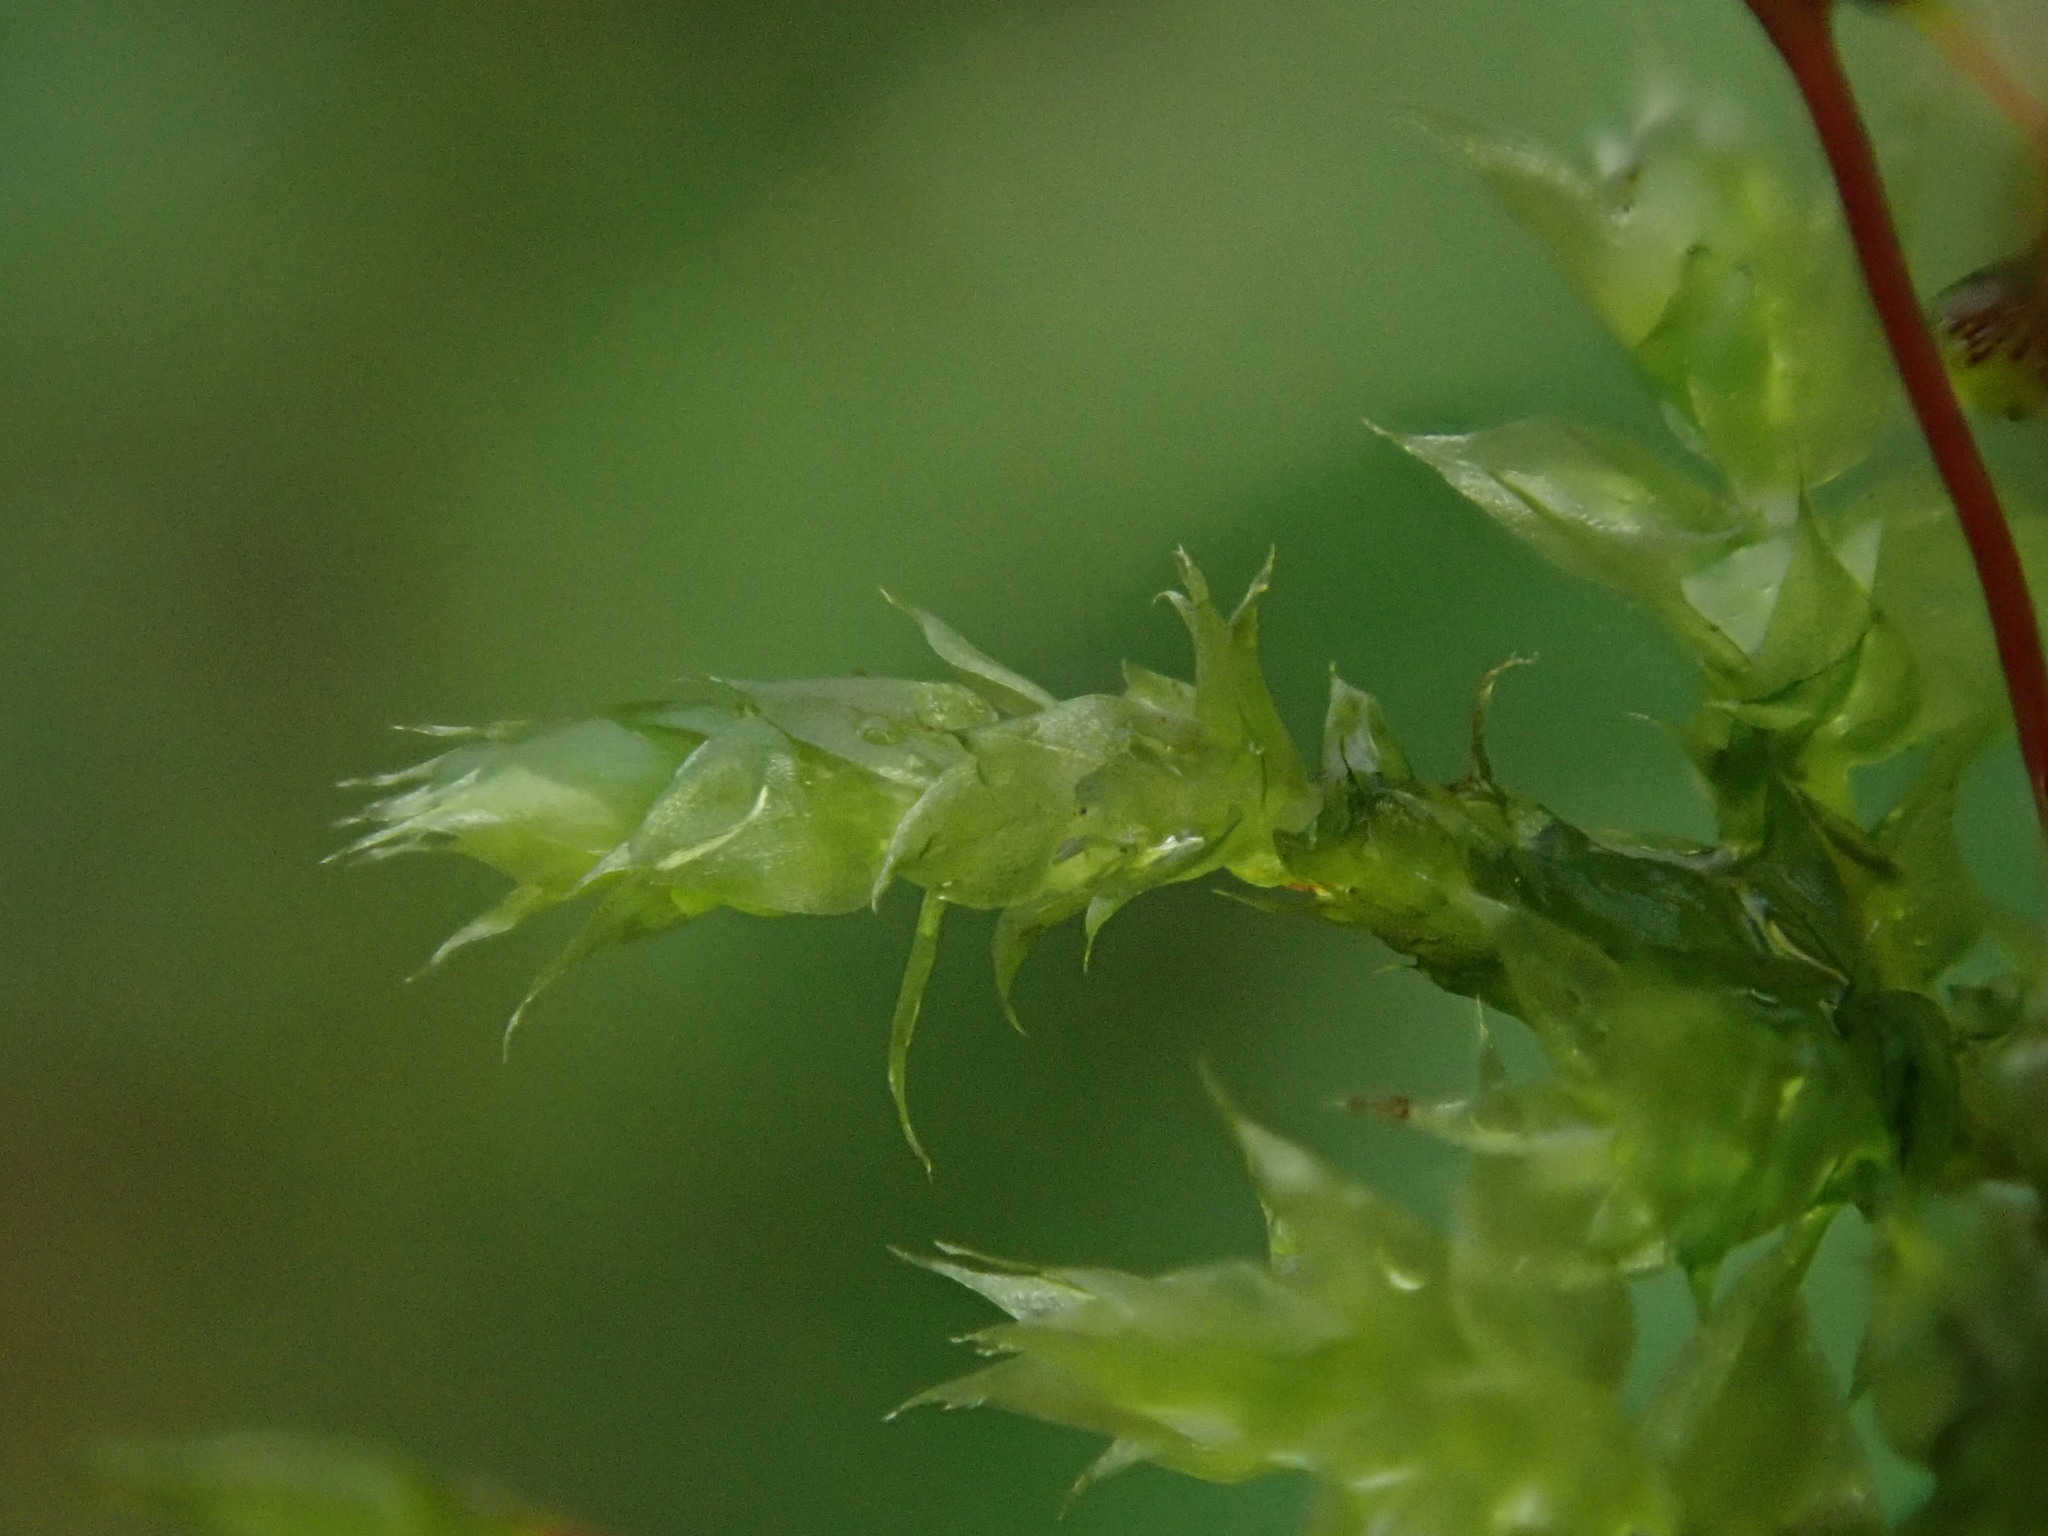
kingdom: Plantae
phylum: Bryophyta
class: Bryopsida
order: Hypnales
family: Brachytheciaceae
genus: Brachythecium
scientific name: Brachythecium rutabulum
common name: Rough-stalked feather-moss
